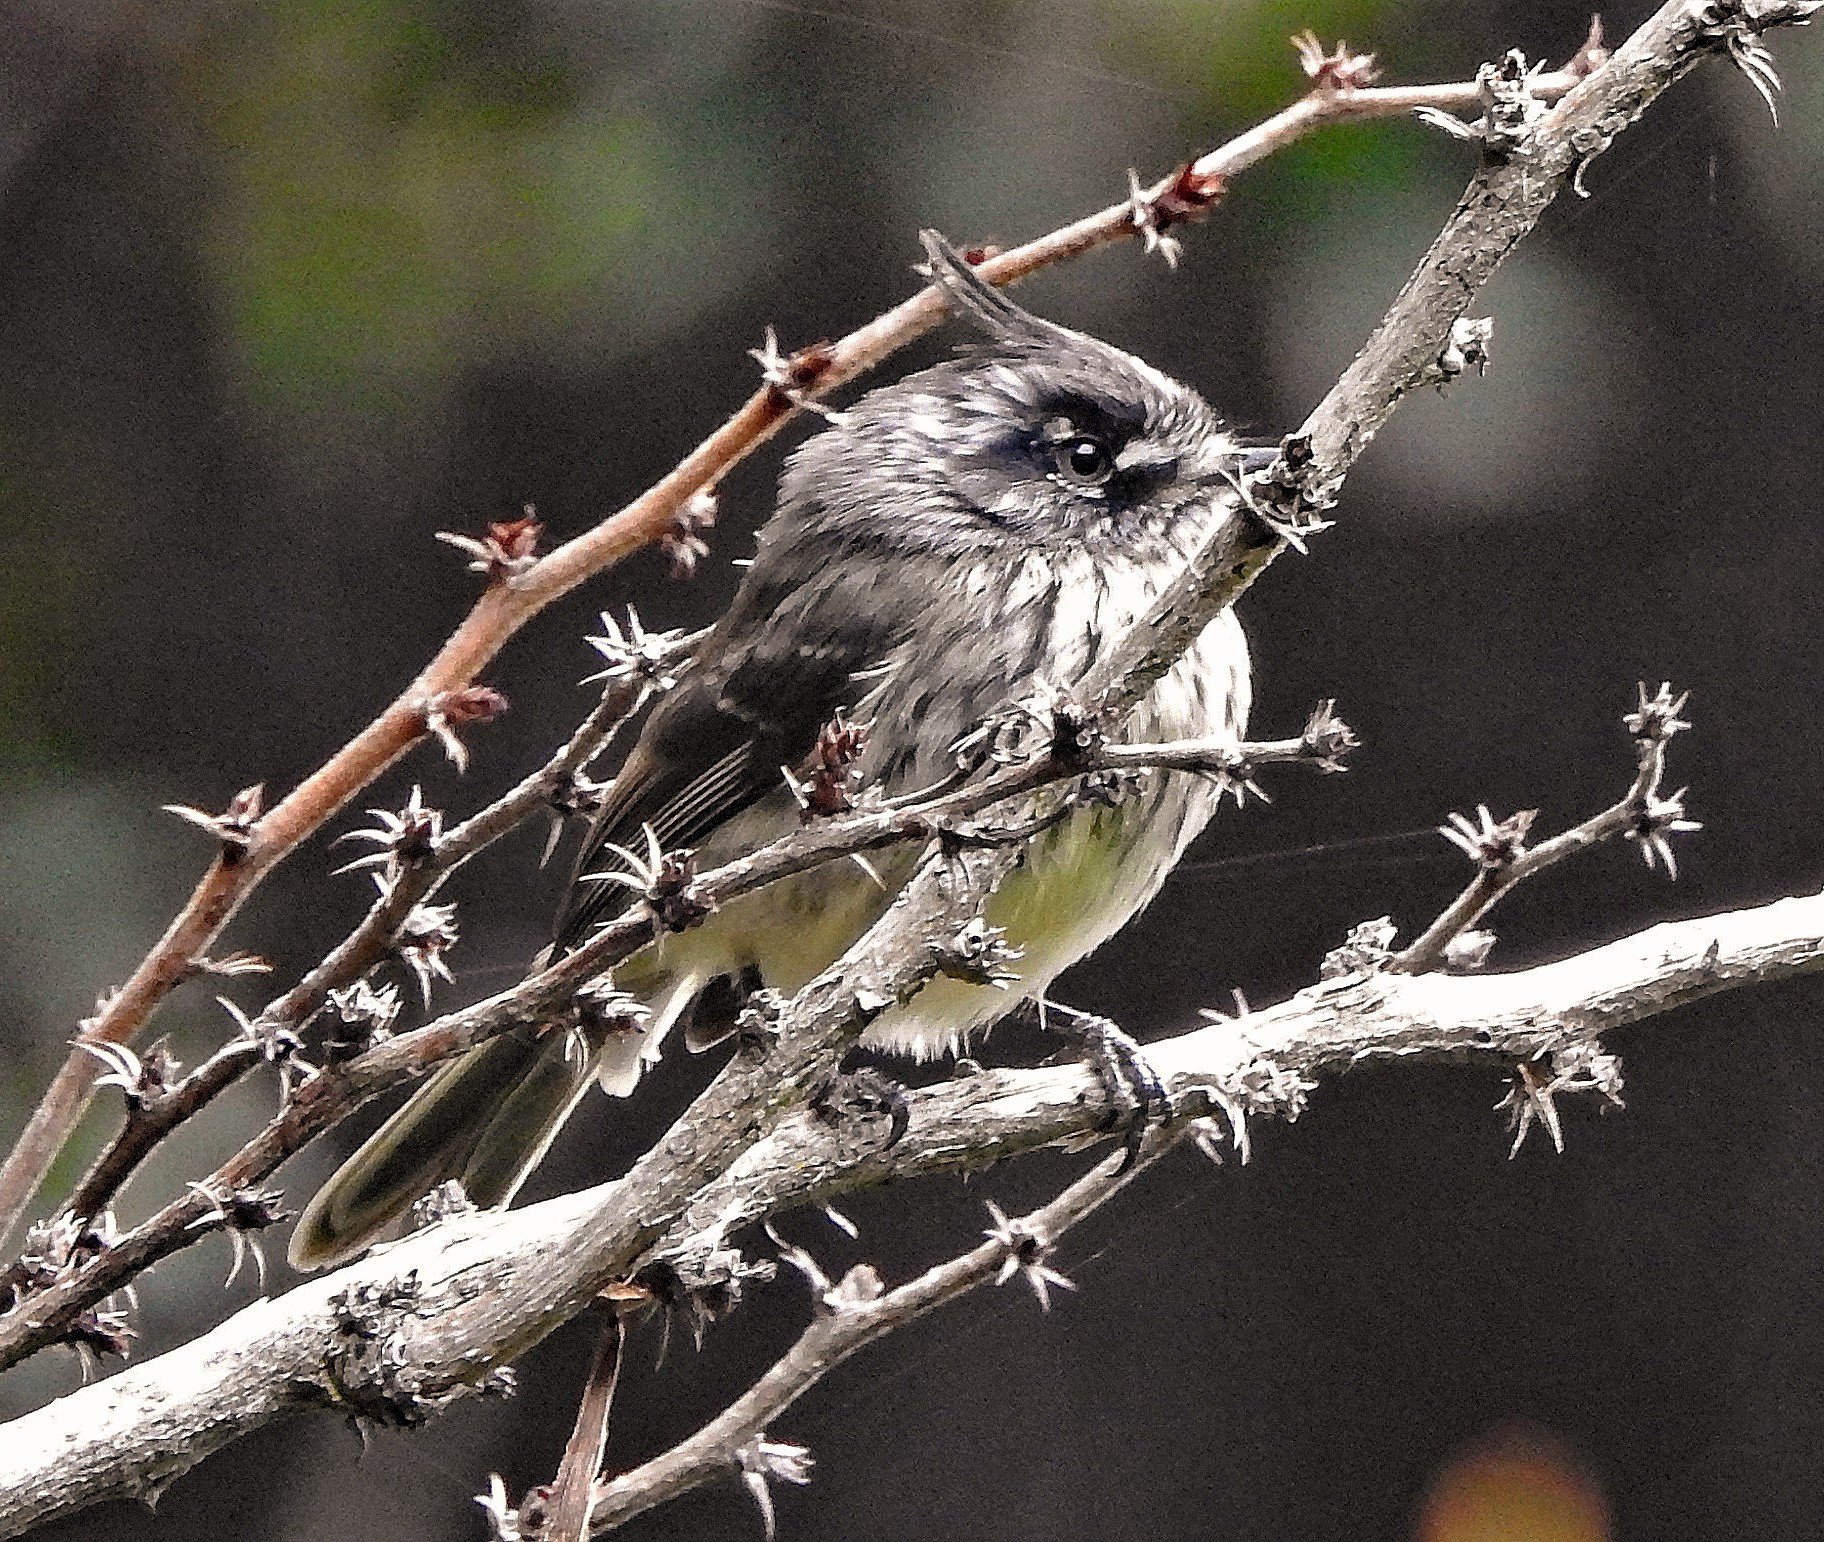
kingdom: Animalia
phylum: Chordata
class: Aves
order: Passeriformes
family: Tyrannidae
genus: Anairetes
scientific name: Anairetes parulus
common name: Tufted tit-tyrant
